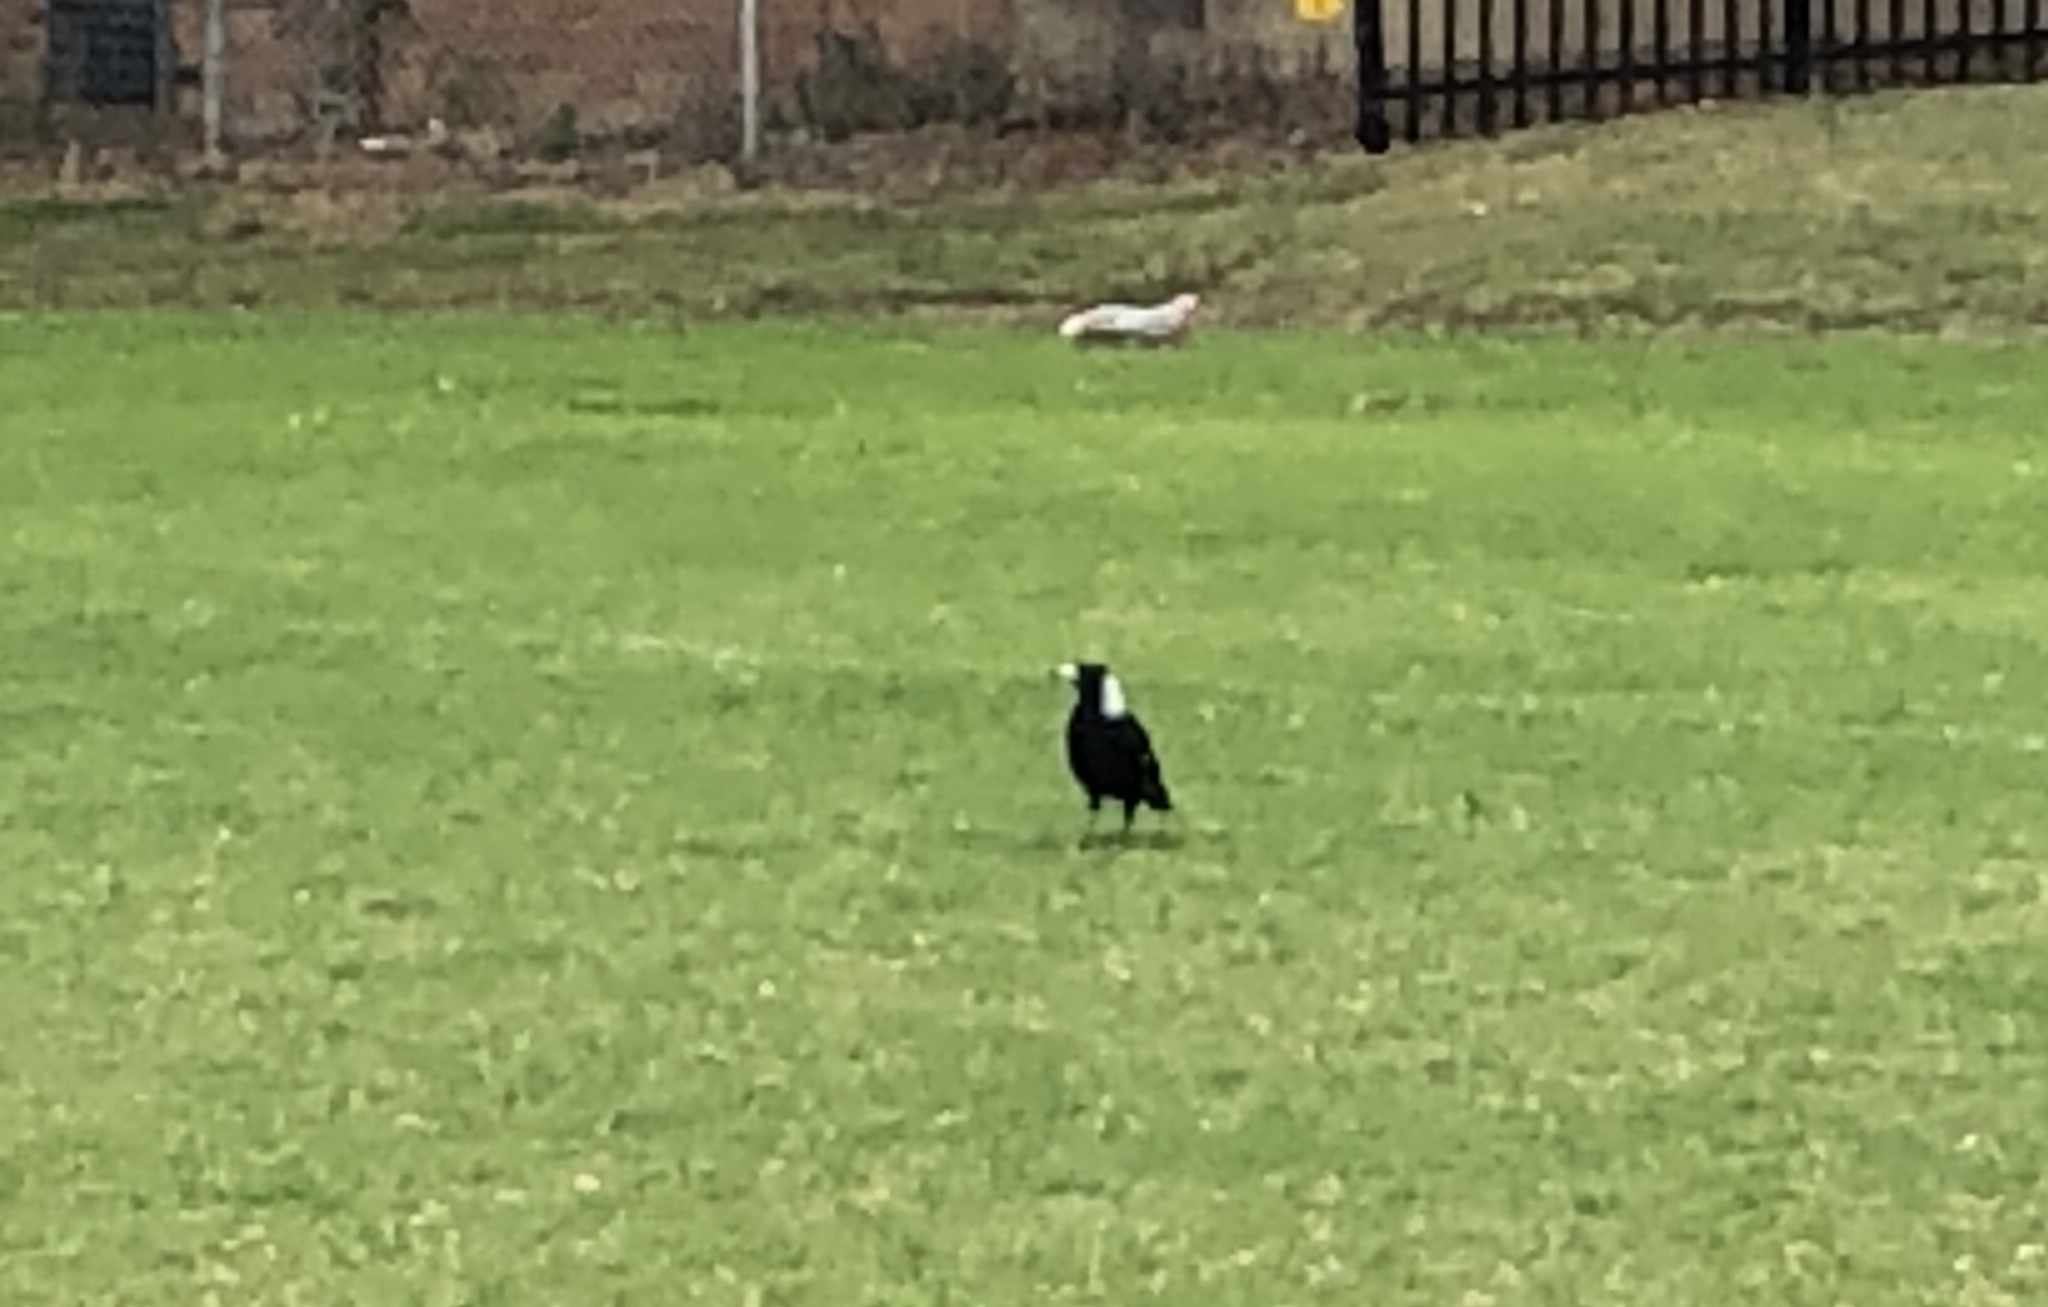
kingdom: Animalia
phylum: Chordata
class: Aves
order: Passeriformes
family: Cracticidae
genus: Gymnorhina
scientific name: Gymnorhina tibicen
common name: Australian magpie
